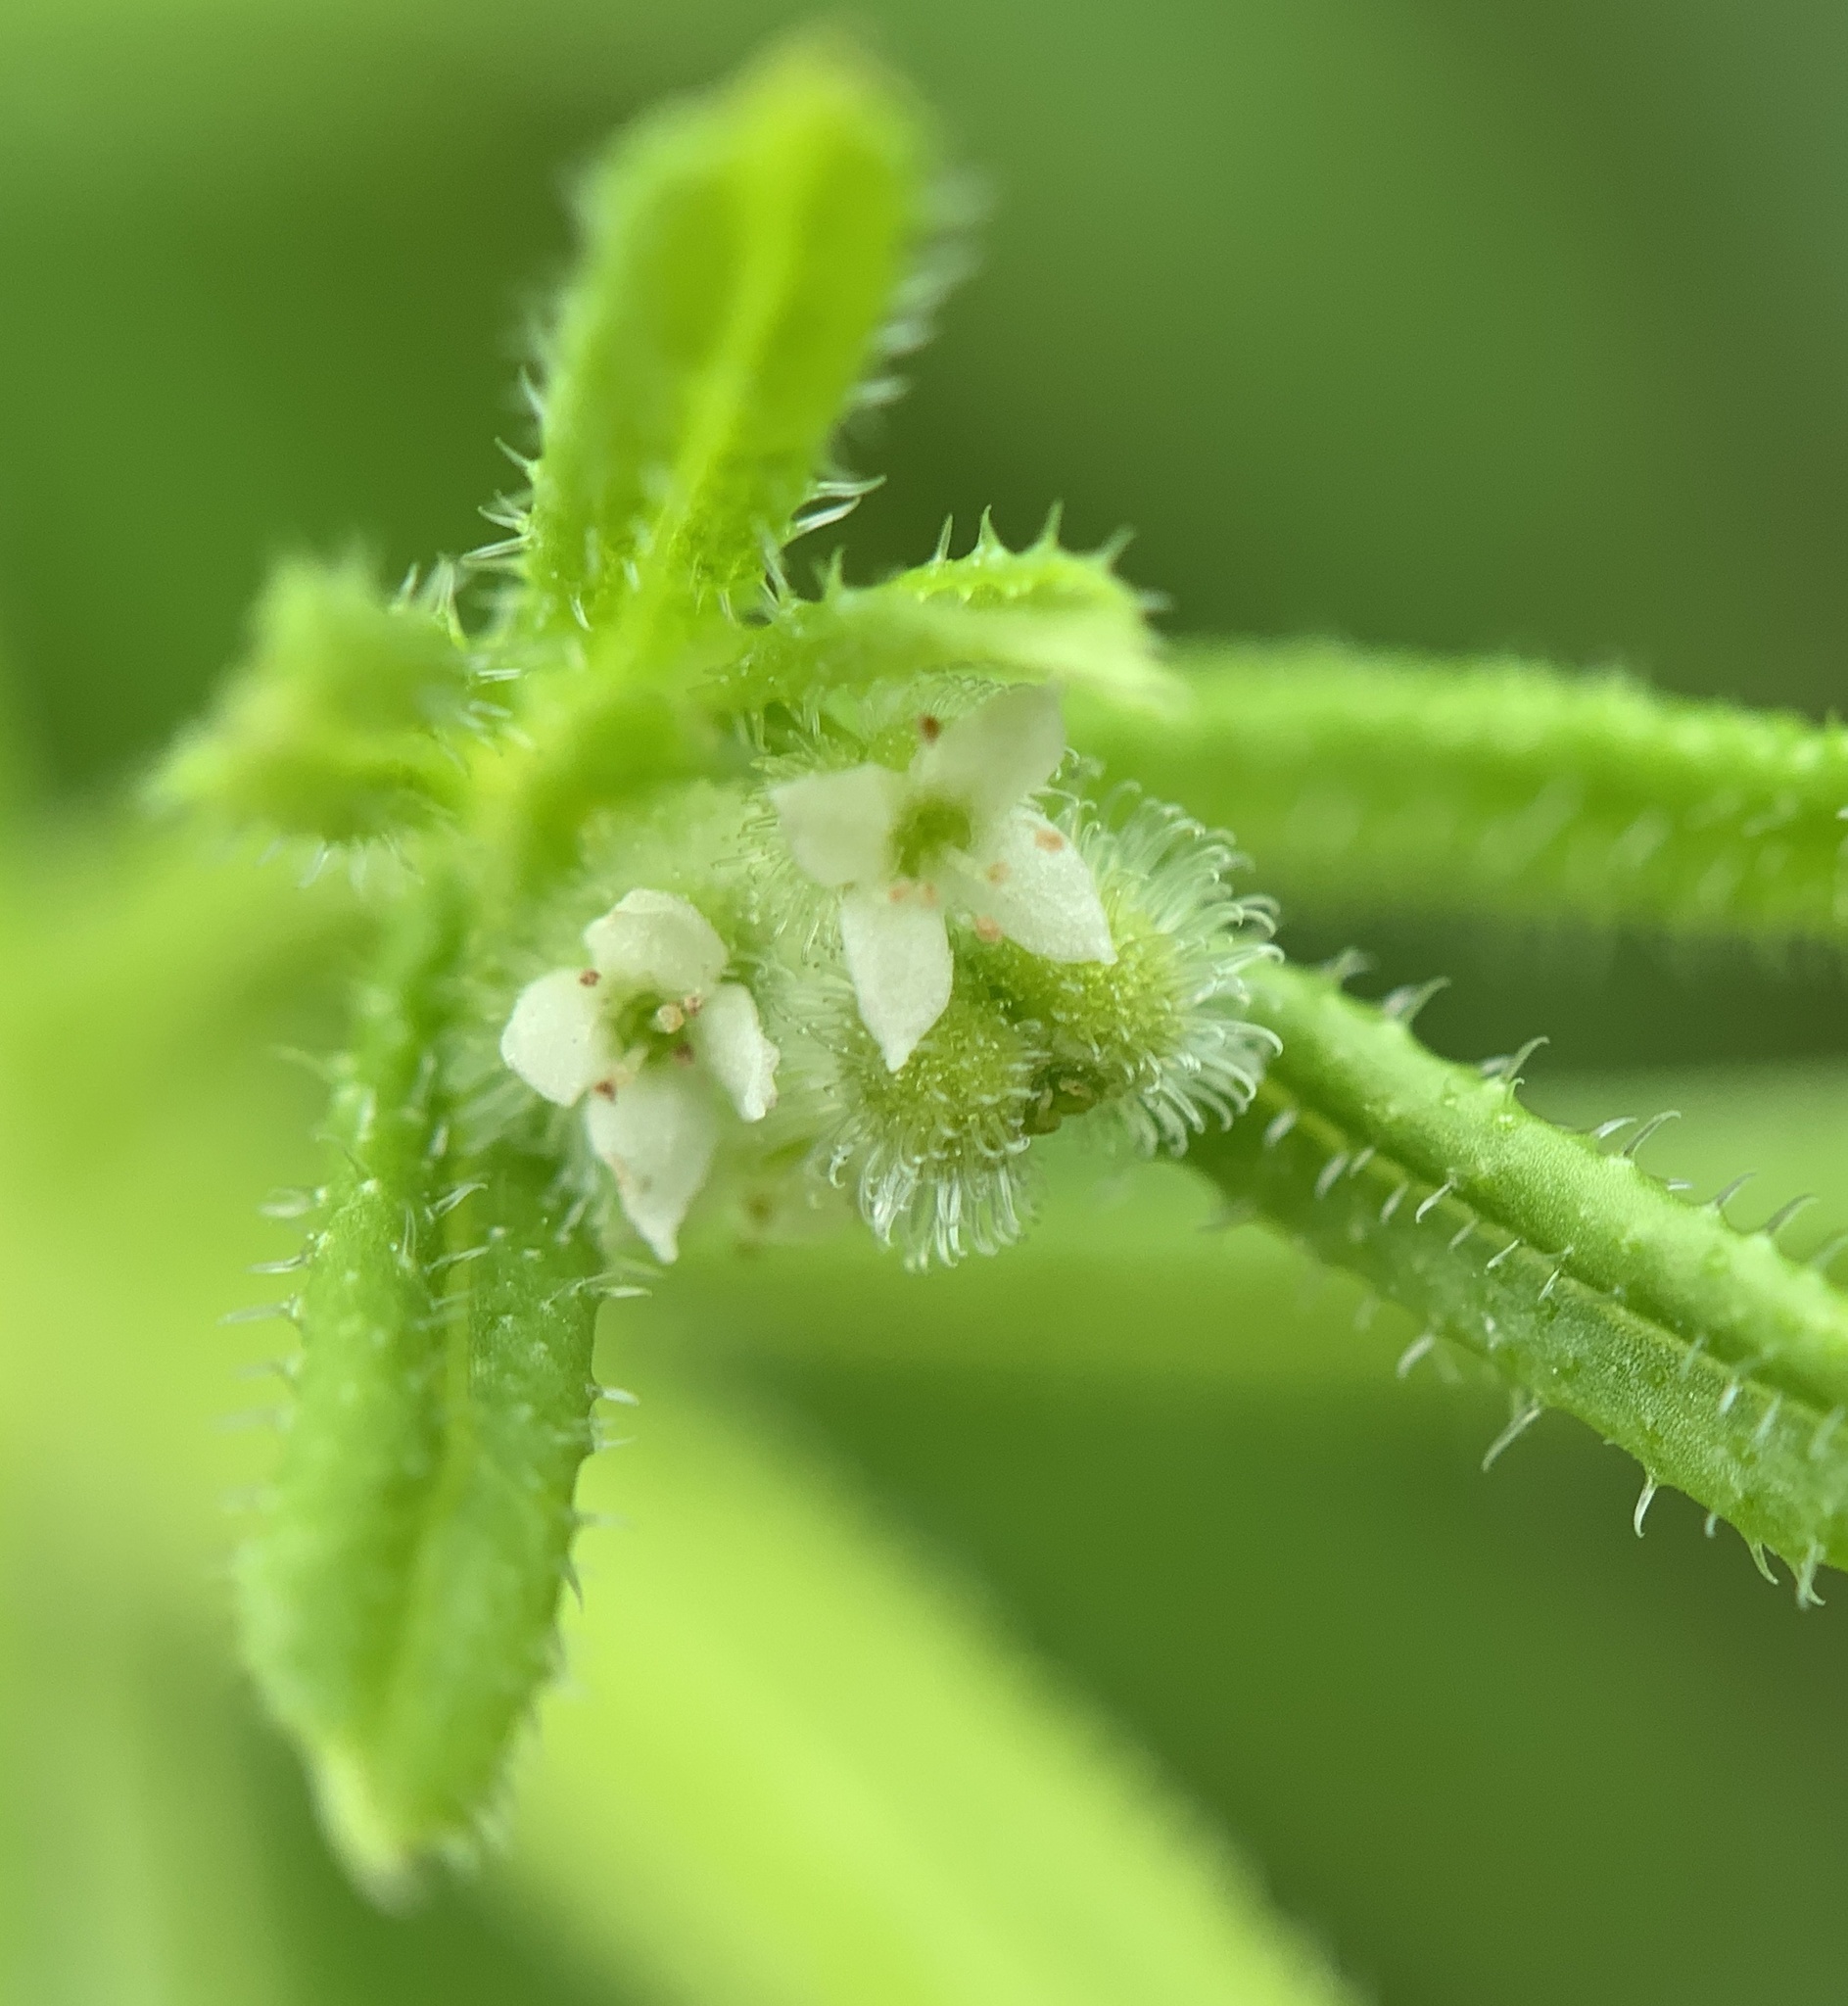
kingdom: Plantae
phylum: Tracheophyta
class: Magnoliopsida
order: Gentianales
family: Rubiaceae
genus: Galium
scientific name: Galium aparine
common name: Cleavers
